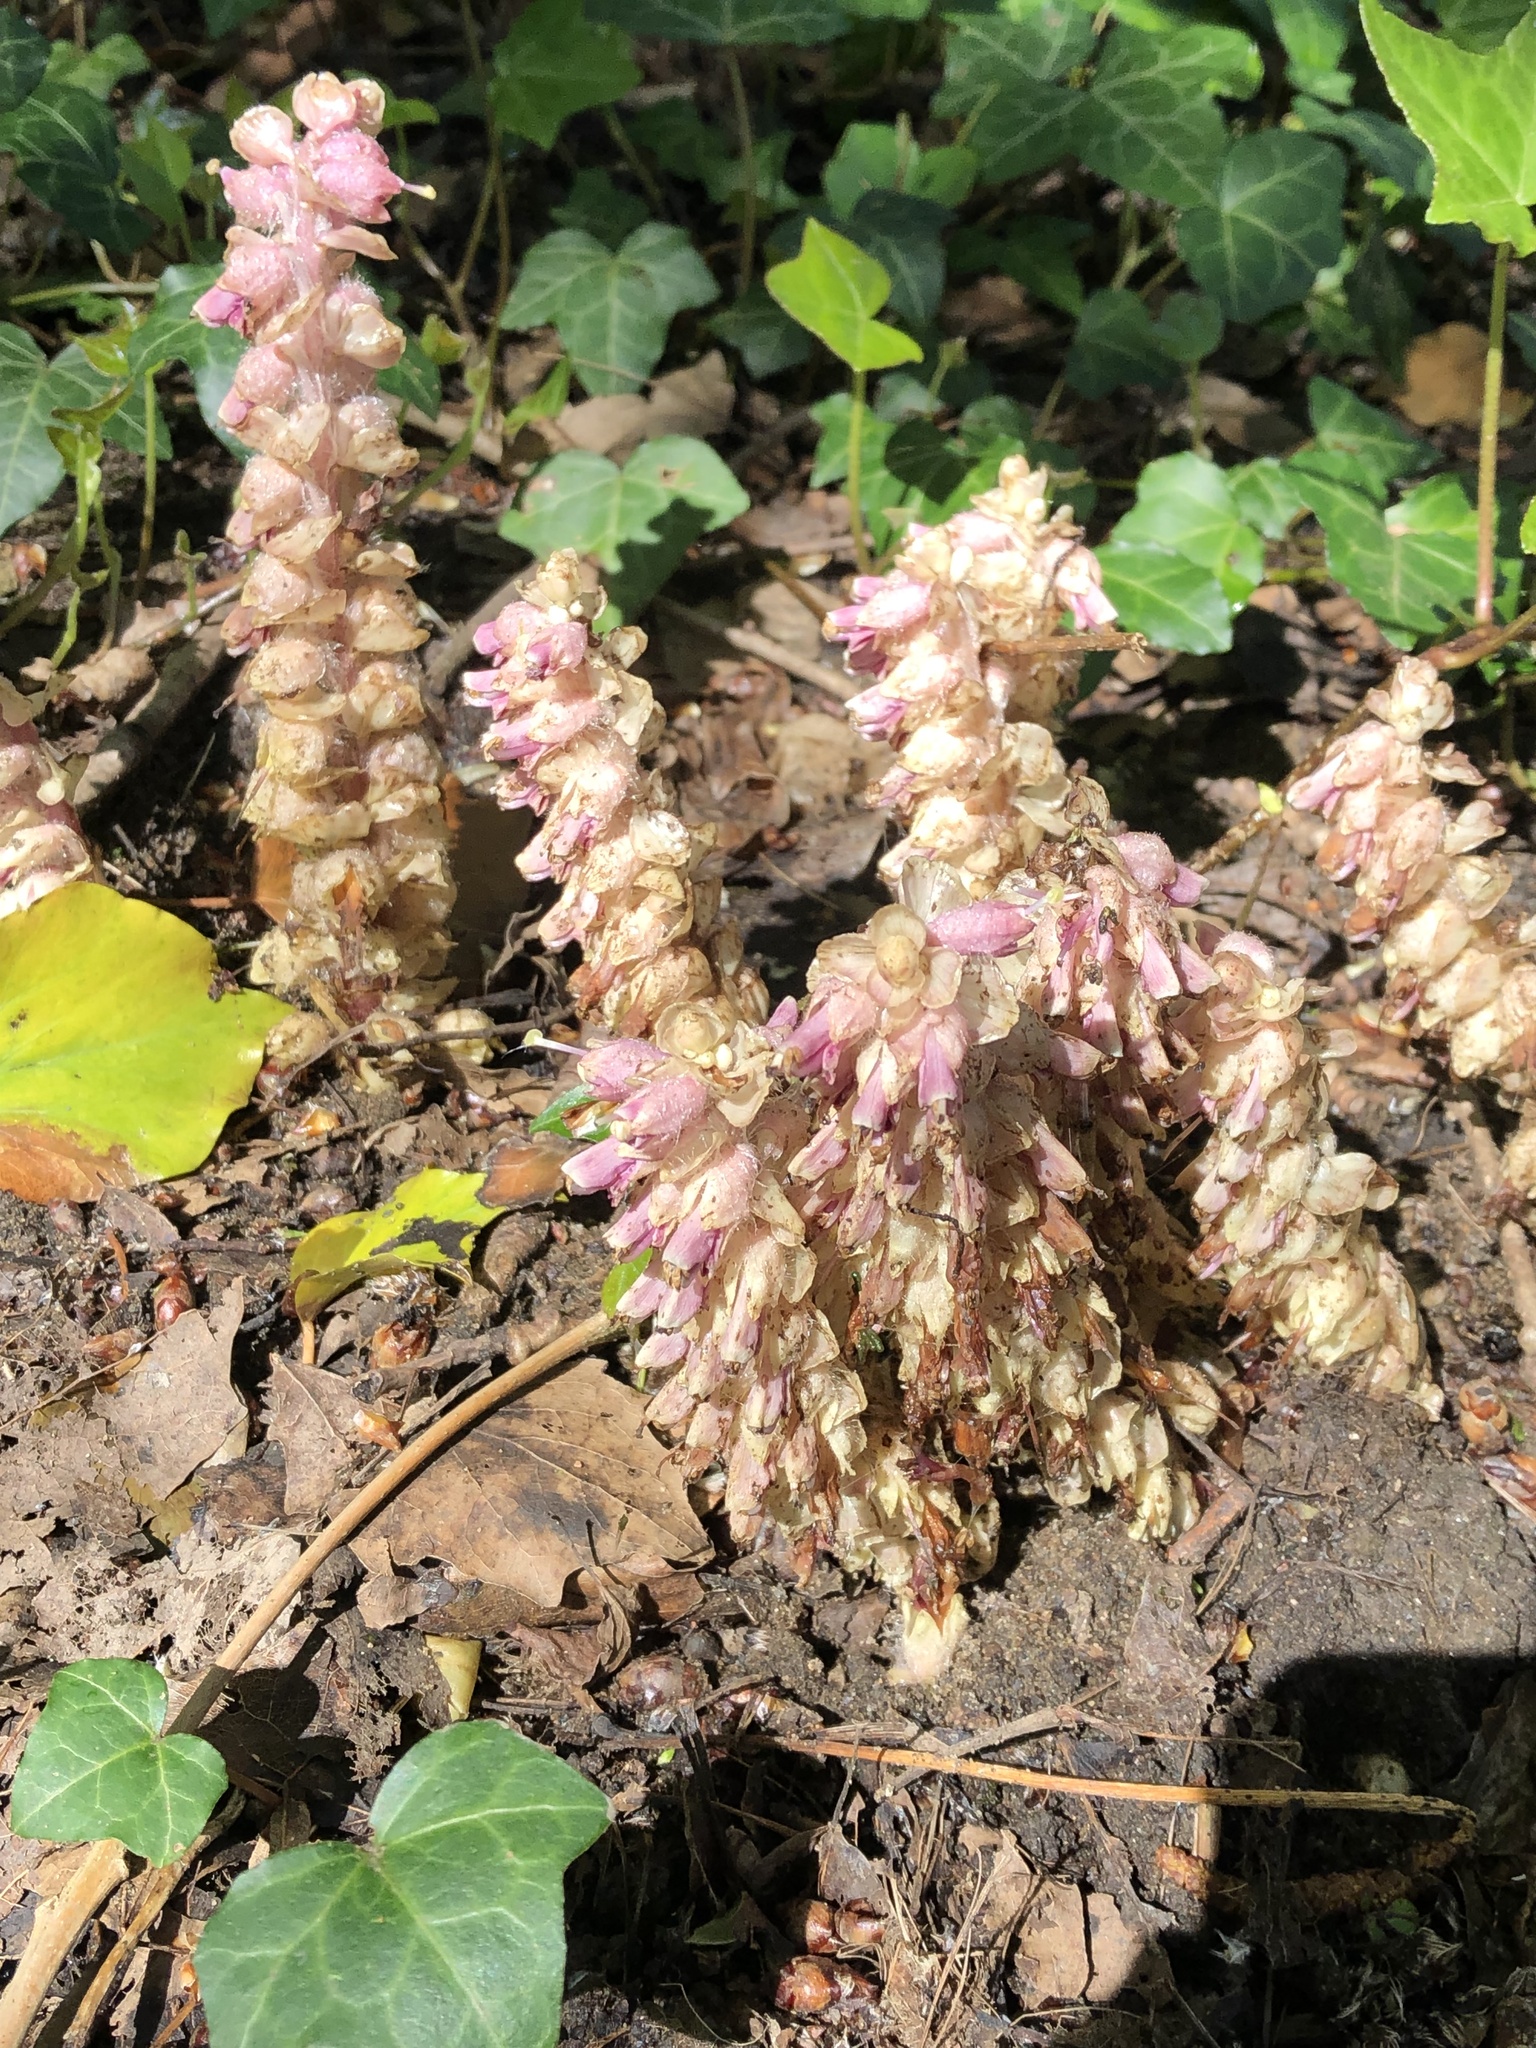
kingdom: Plantae
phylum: Tracheophyta
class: Magnoliopsida
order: Lamiales
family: Orobanchaceae
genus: Lathraea
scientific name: Lathraea squamaria
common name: Toothwort
